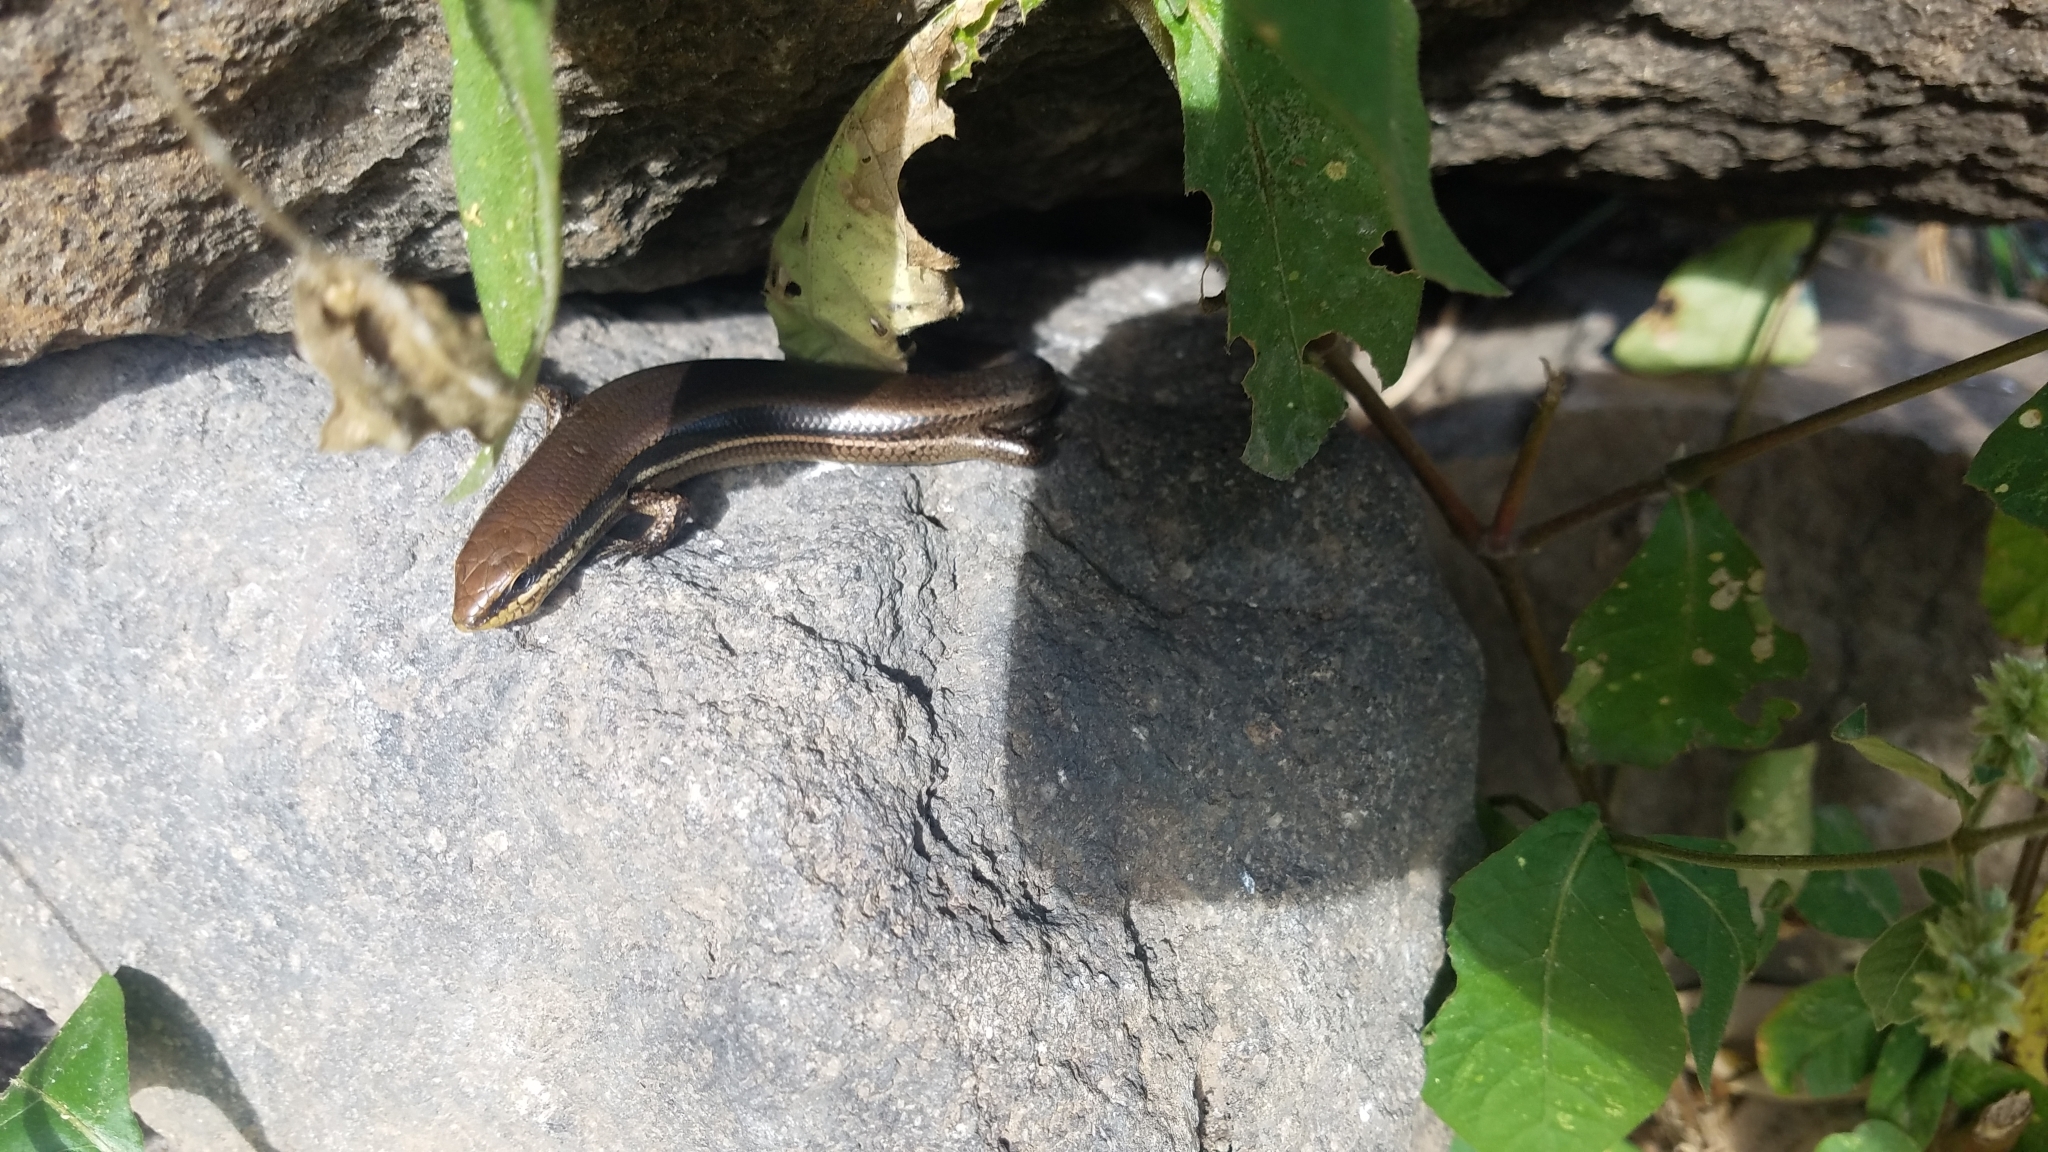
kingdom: Animalia
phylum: Chordata
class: Squamata
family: Scincidae
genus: Marisora
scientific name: Marisora brachypoda
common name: Western middle america skink
